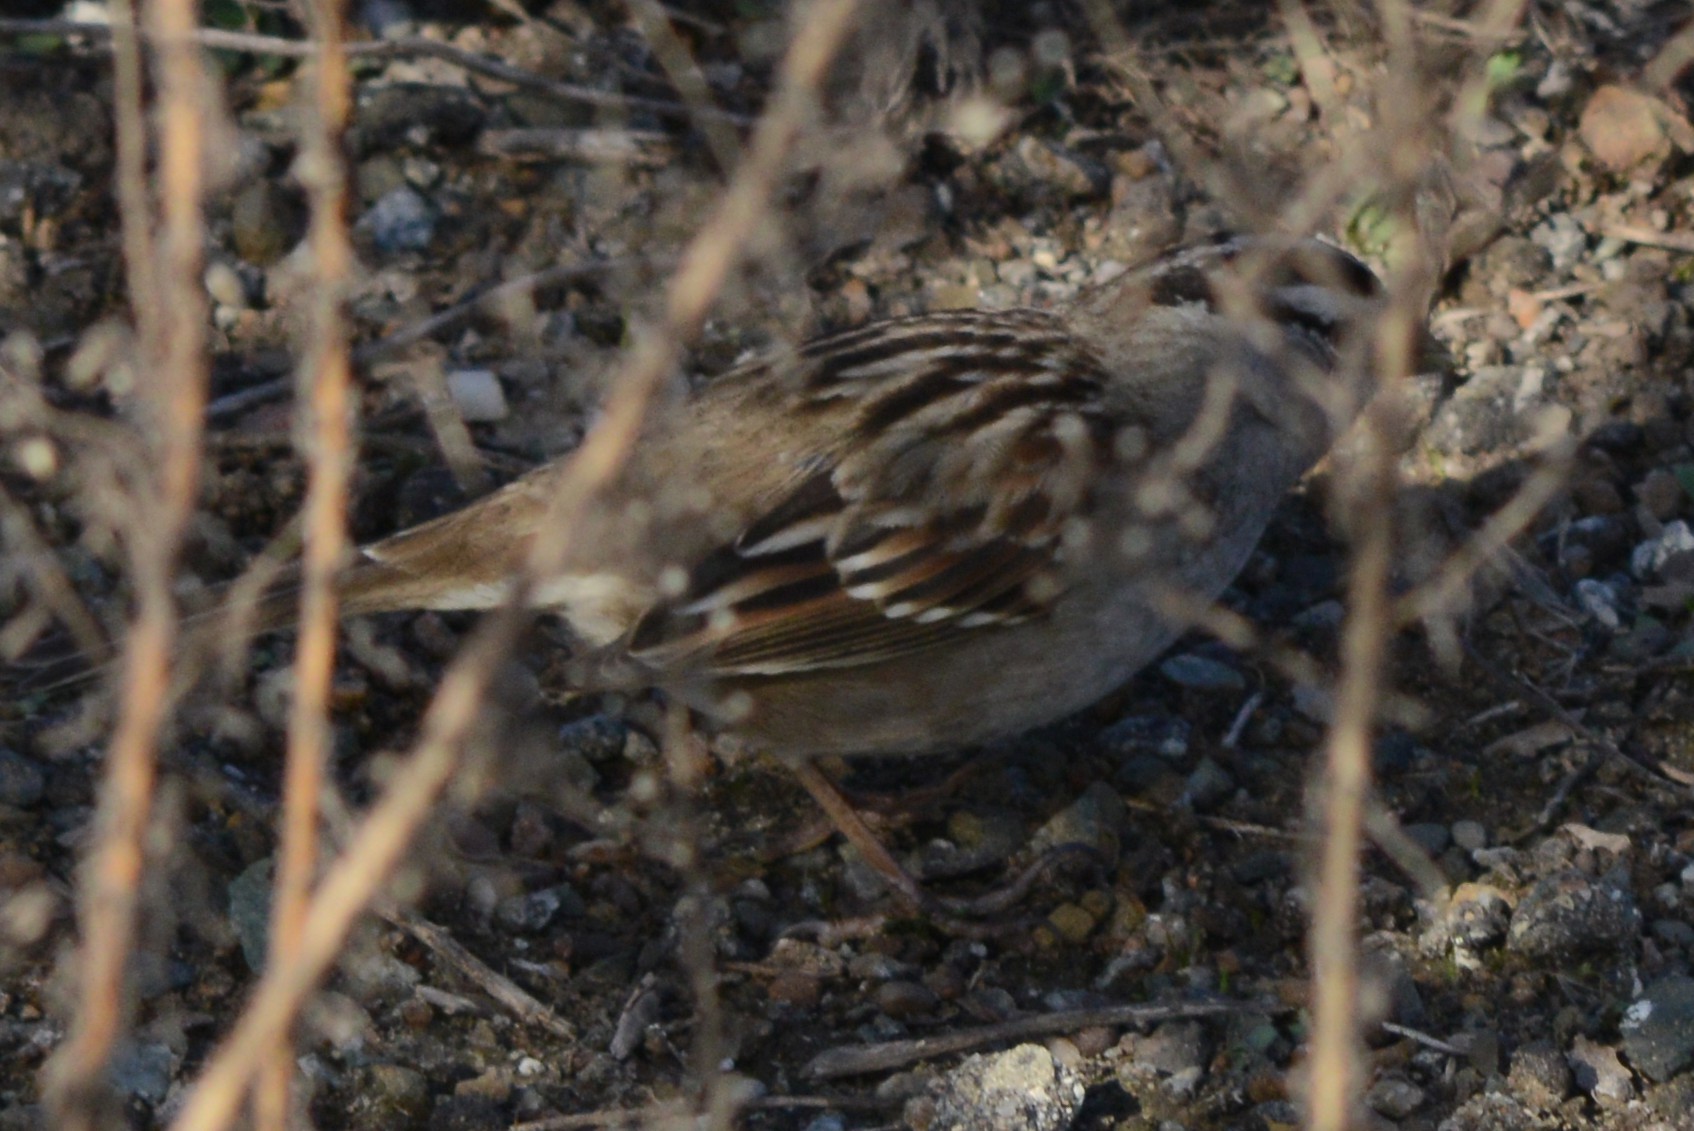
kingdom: Animalia
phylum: Chordata
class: Aves
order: Passeriformes
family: Passerellidae
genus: Zonotrichia
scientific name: Zonotrichia leucophrys
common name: White-crowned sparrow
